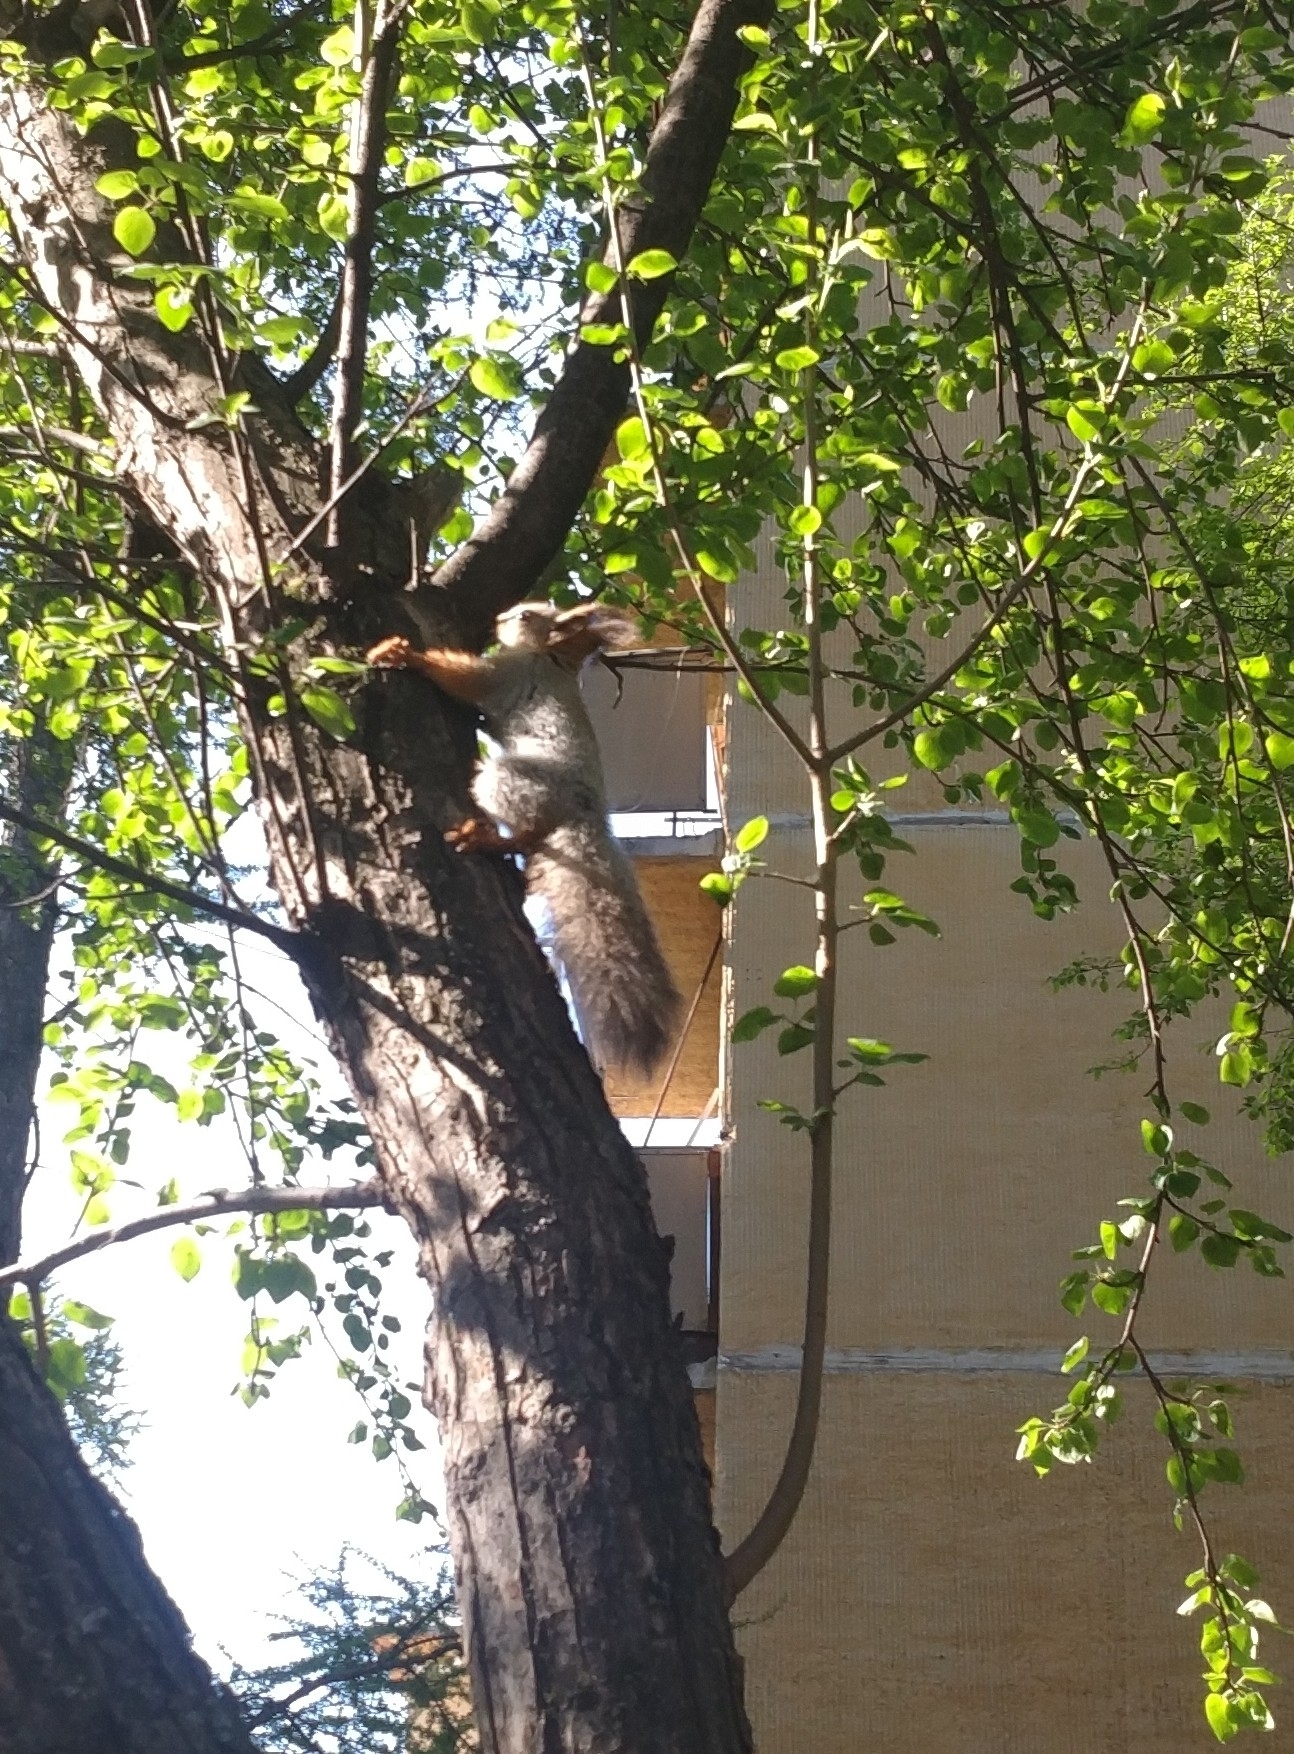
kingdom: Animalia
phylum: Chordata
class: Mammalia
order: Rodentia
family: Sciuridae
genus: Sciurus
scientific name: Sciurus vulgaris
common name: Eurasian red squirrel
